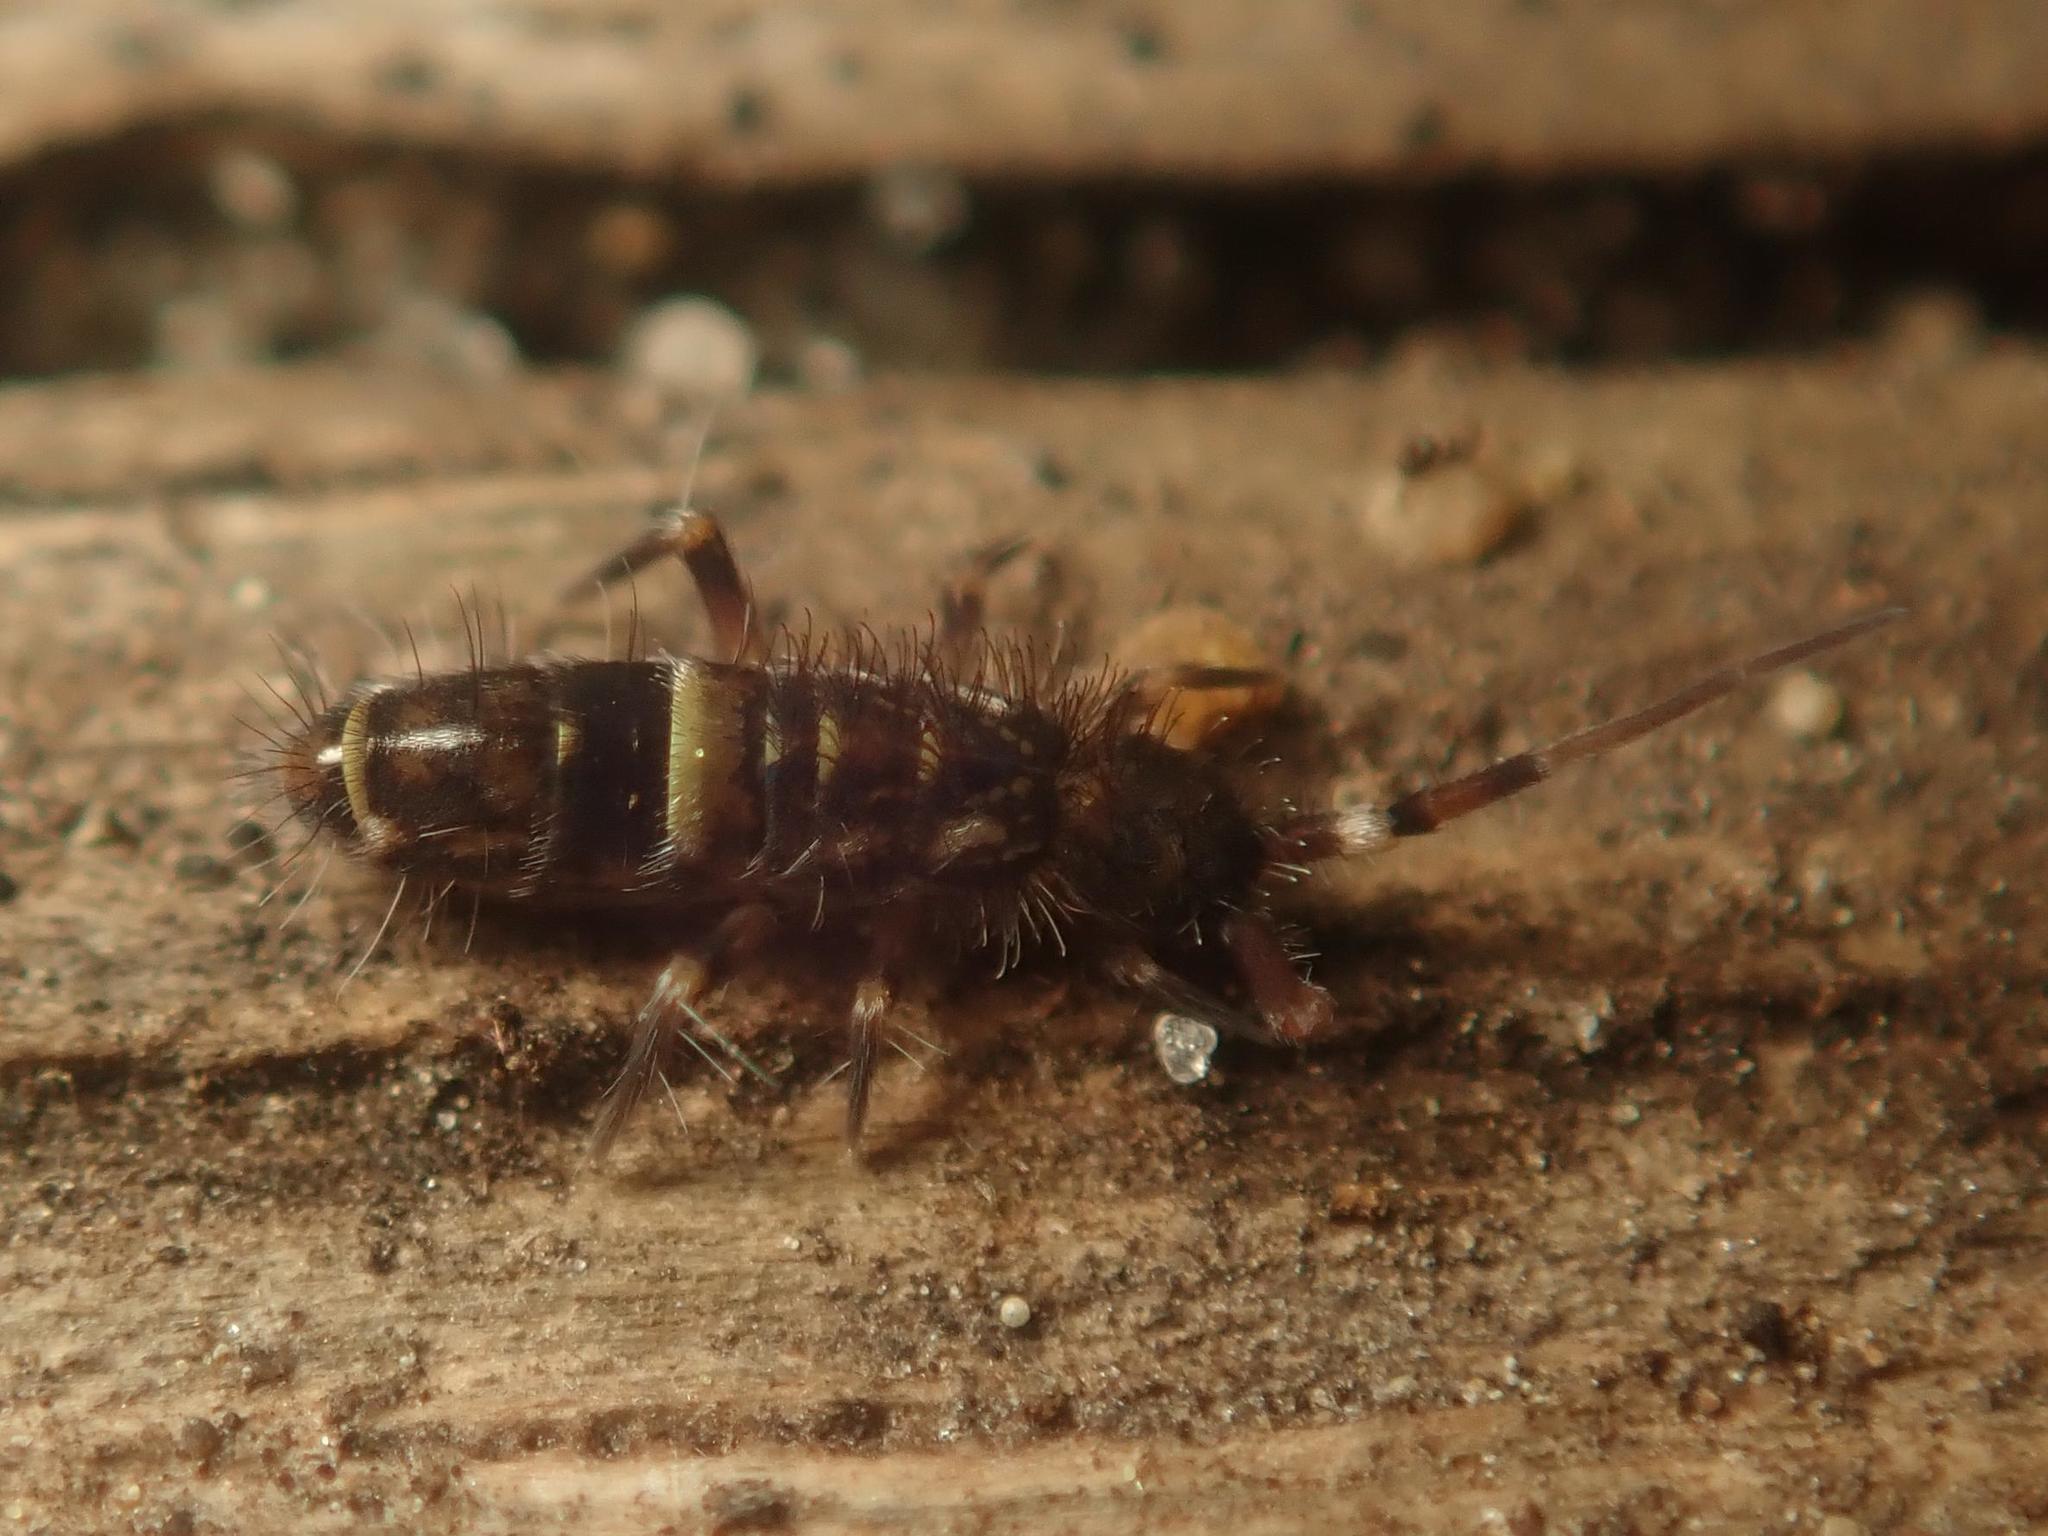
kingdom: Animalia
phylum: Arthropoda
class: Collembola
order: Entomobryomorpha
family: Orchesellidae
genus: Orchesella
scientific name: Orchesella cincta
